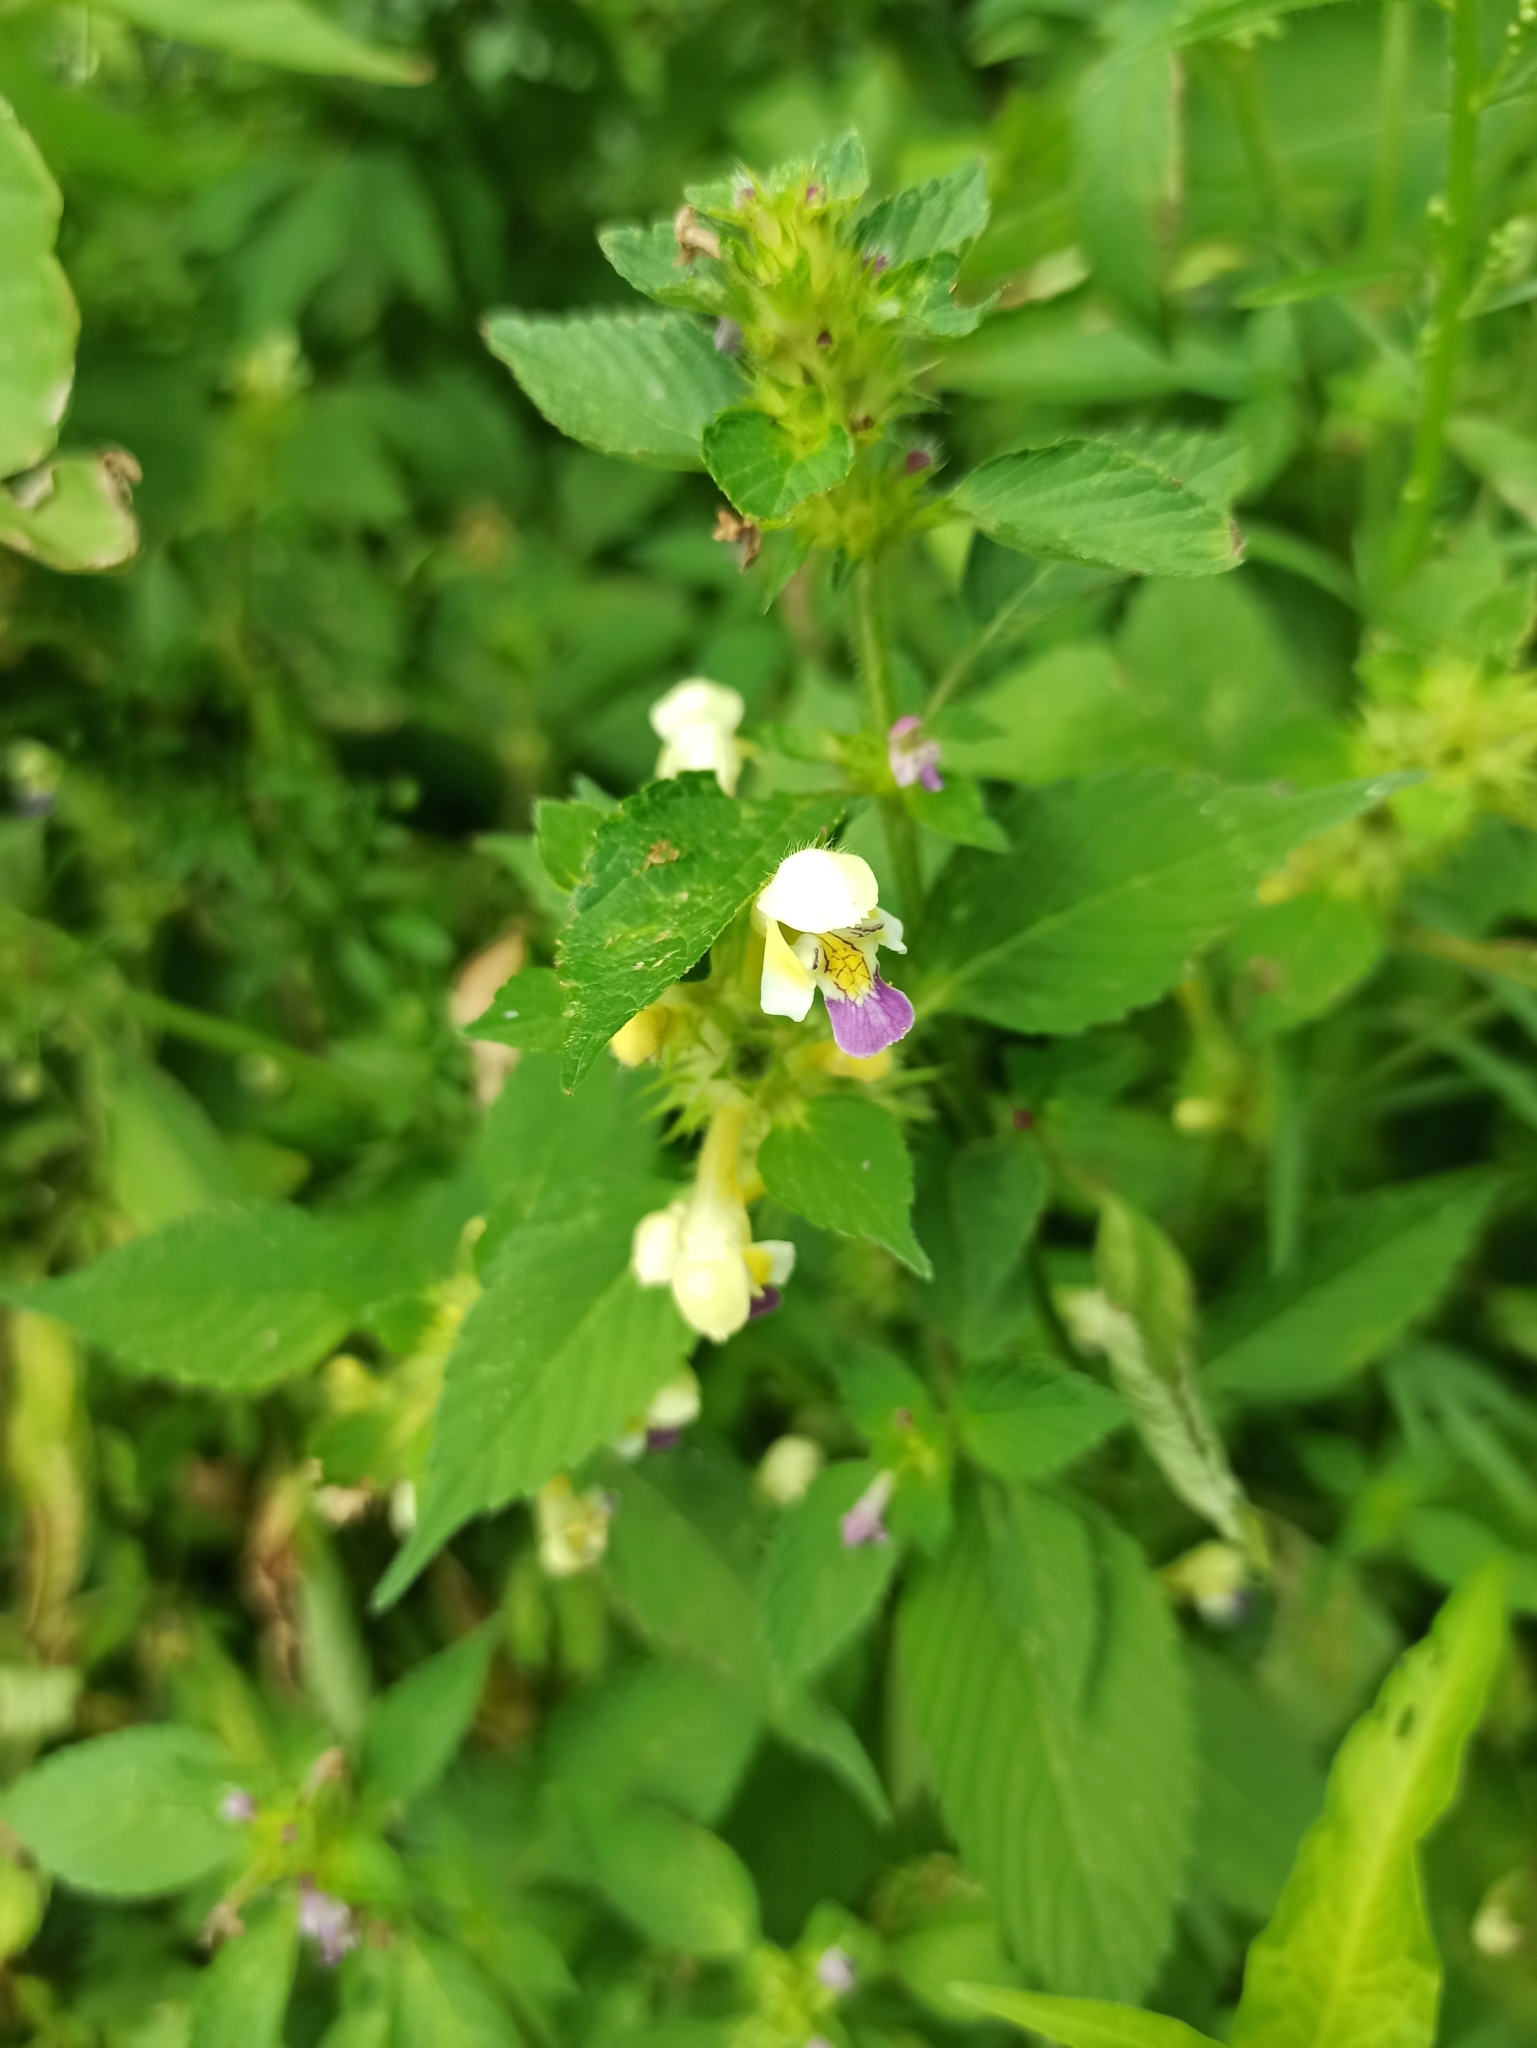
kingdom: Plantae
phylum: Tracheophyta
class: Magnoliopsida
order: Lamiales
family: Lamiaceae
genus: Galeopsis
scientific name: Galeopsis speciosa
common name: Large-flowered hemp-nettle
